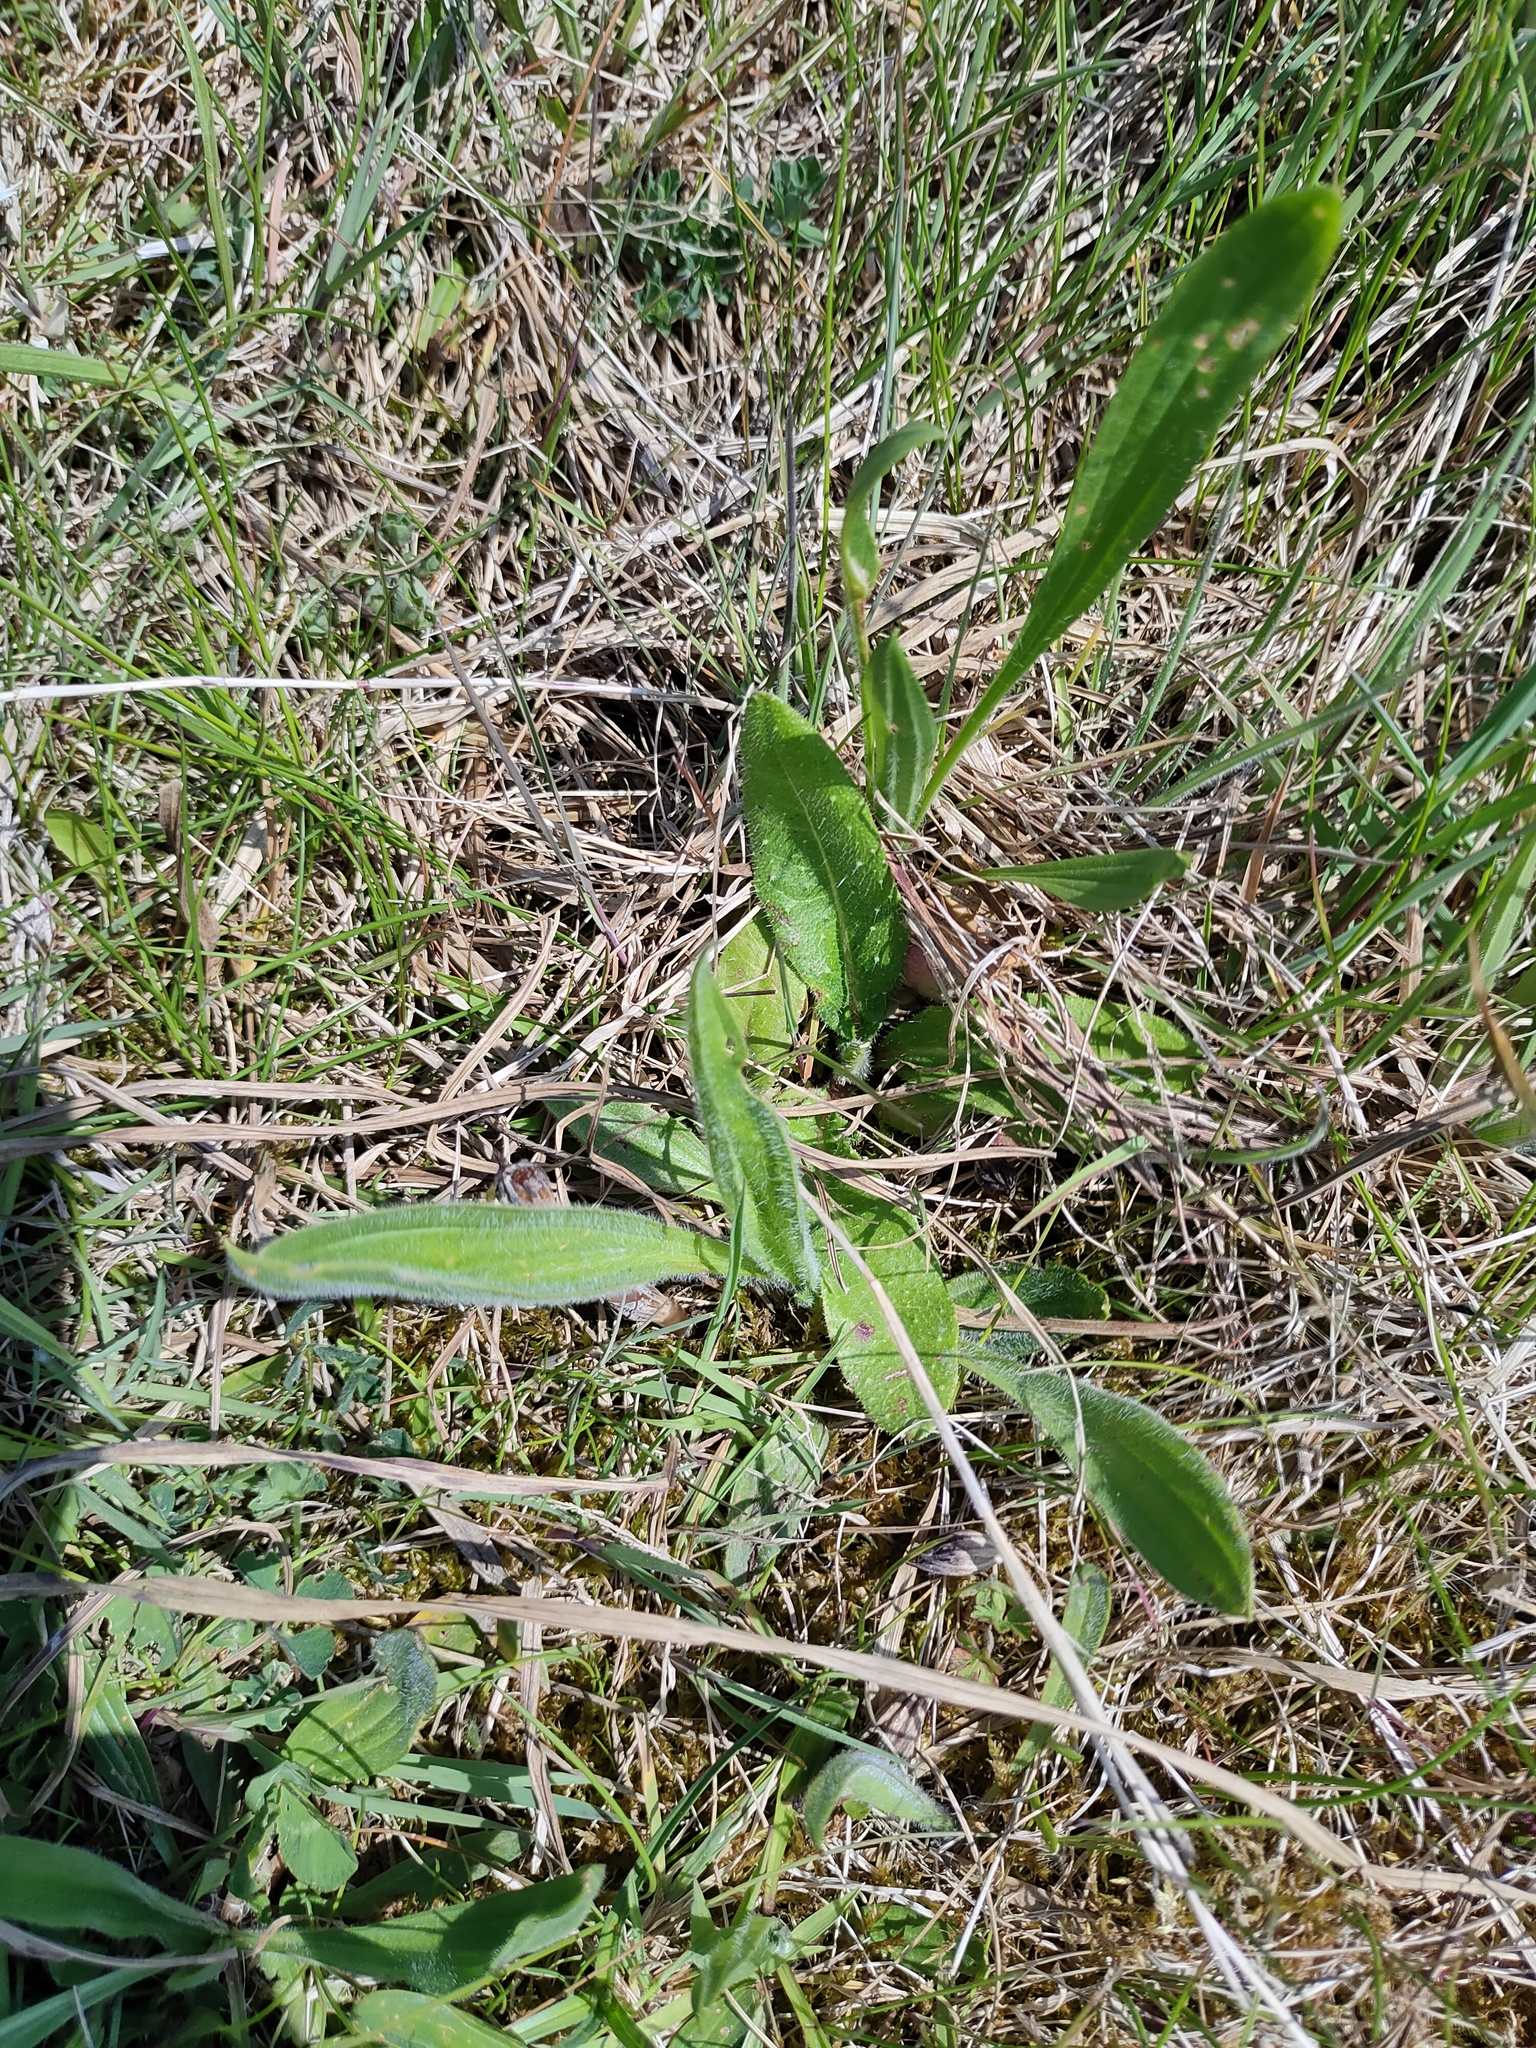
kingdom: Plantae
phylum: Tracheophyta
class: Magnoliopsida
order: Lamiales
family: Plantaginaceae
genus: Plantago
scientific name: Plantago lanceolata
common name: Ribwort plantain
